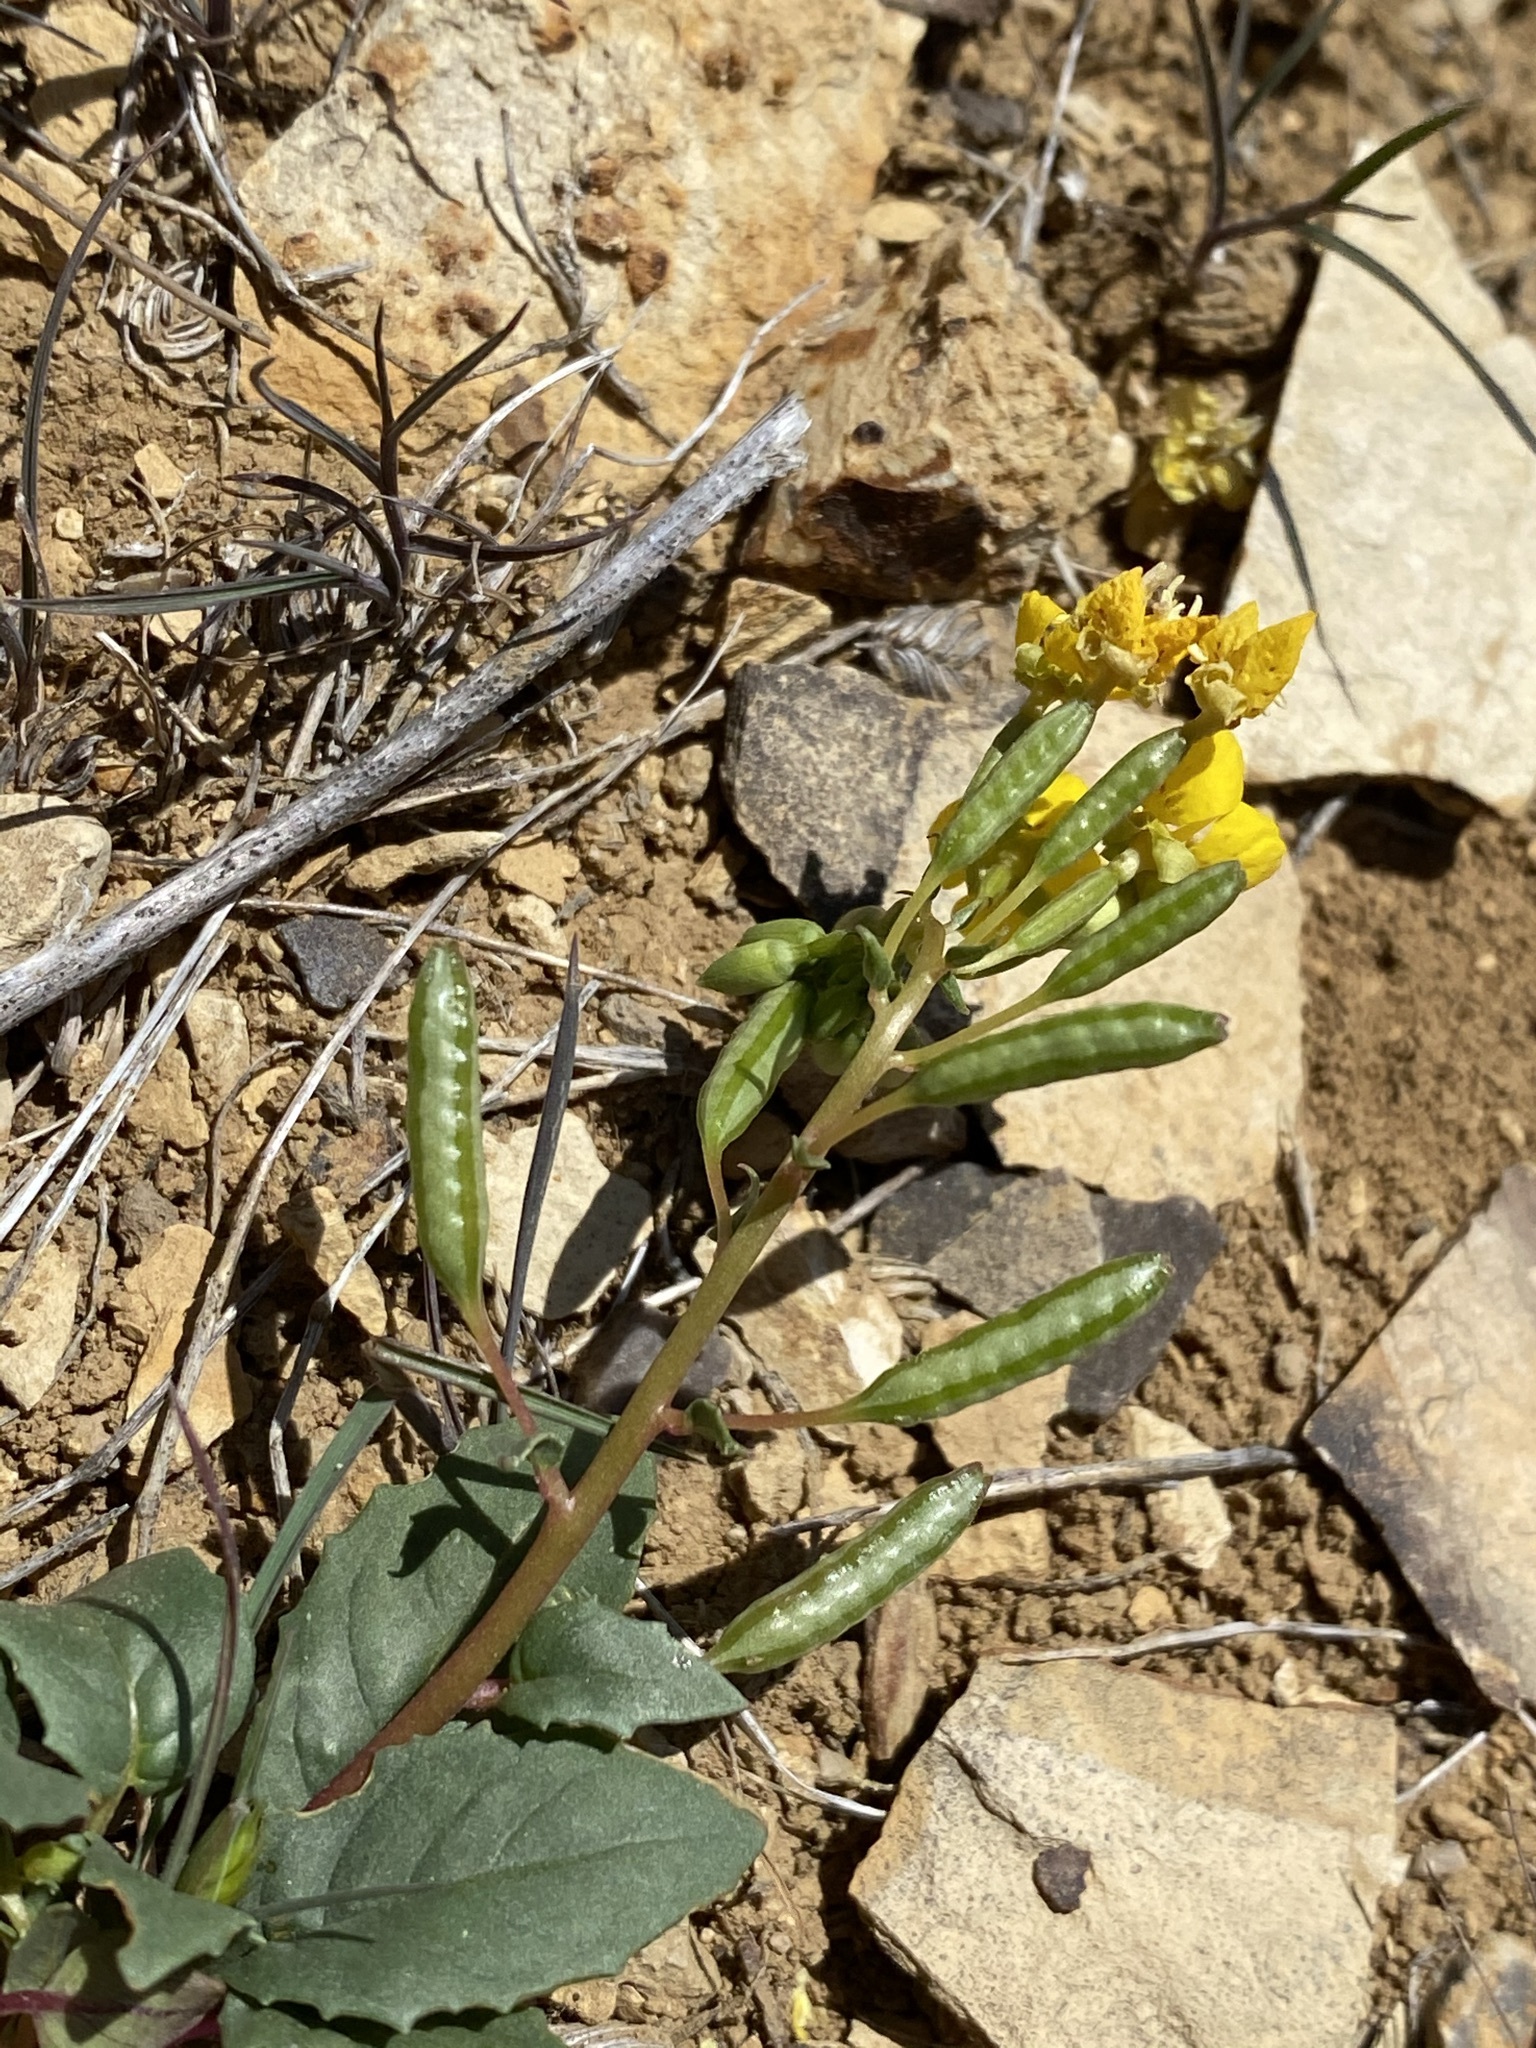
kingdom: Plantae
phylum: Tracheophyta
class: Magnoliopsida
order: Myrtales
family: Onagraceae
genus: Chylismia
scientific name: Chylismia claviformis
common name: Browneyes
